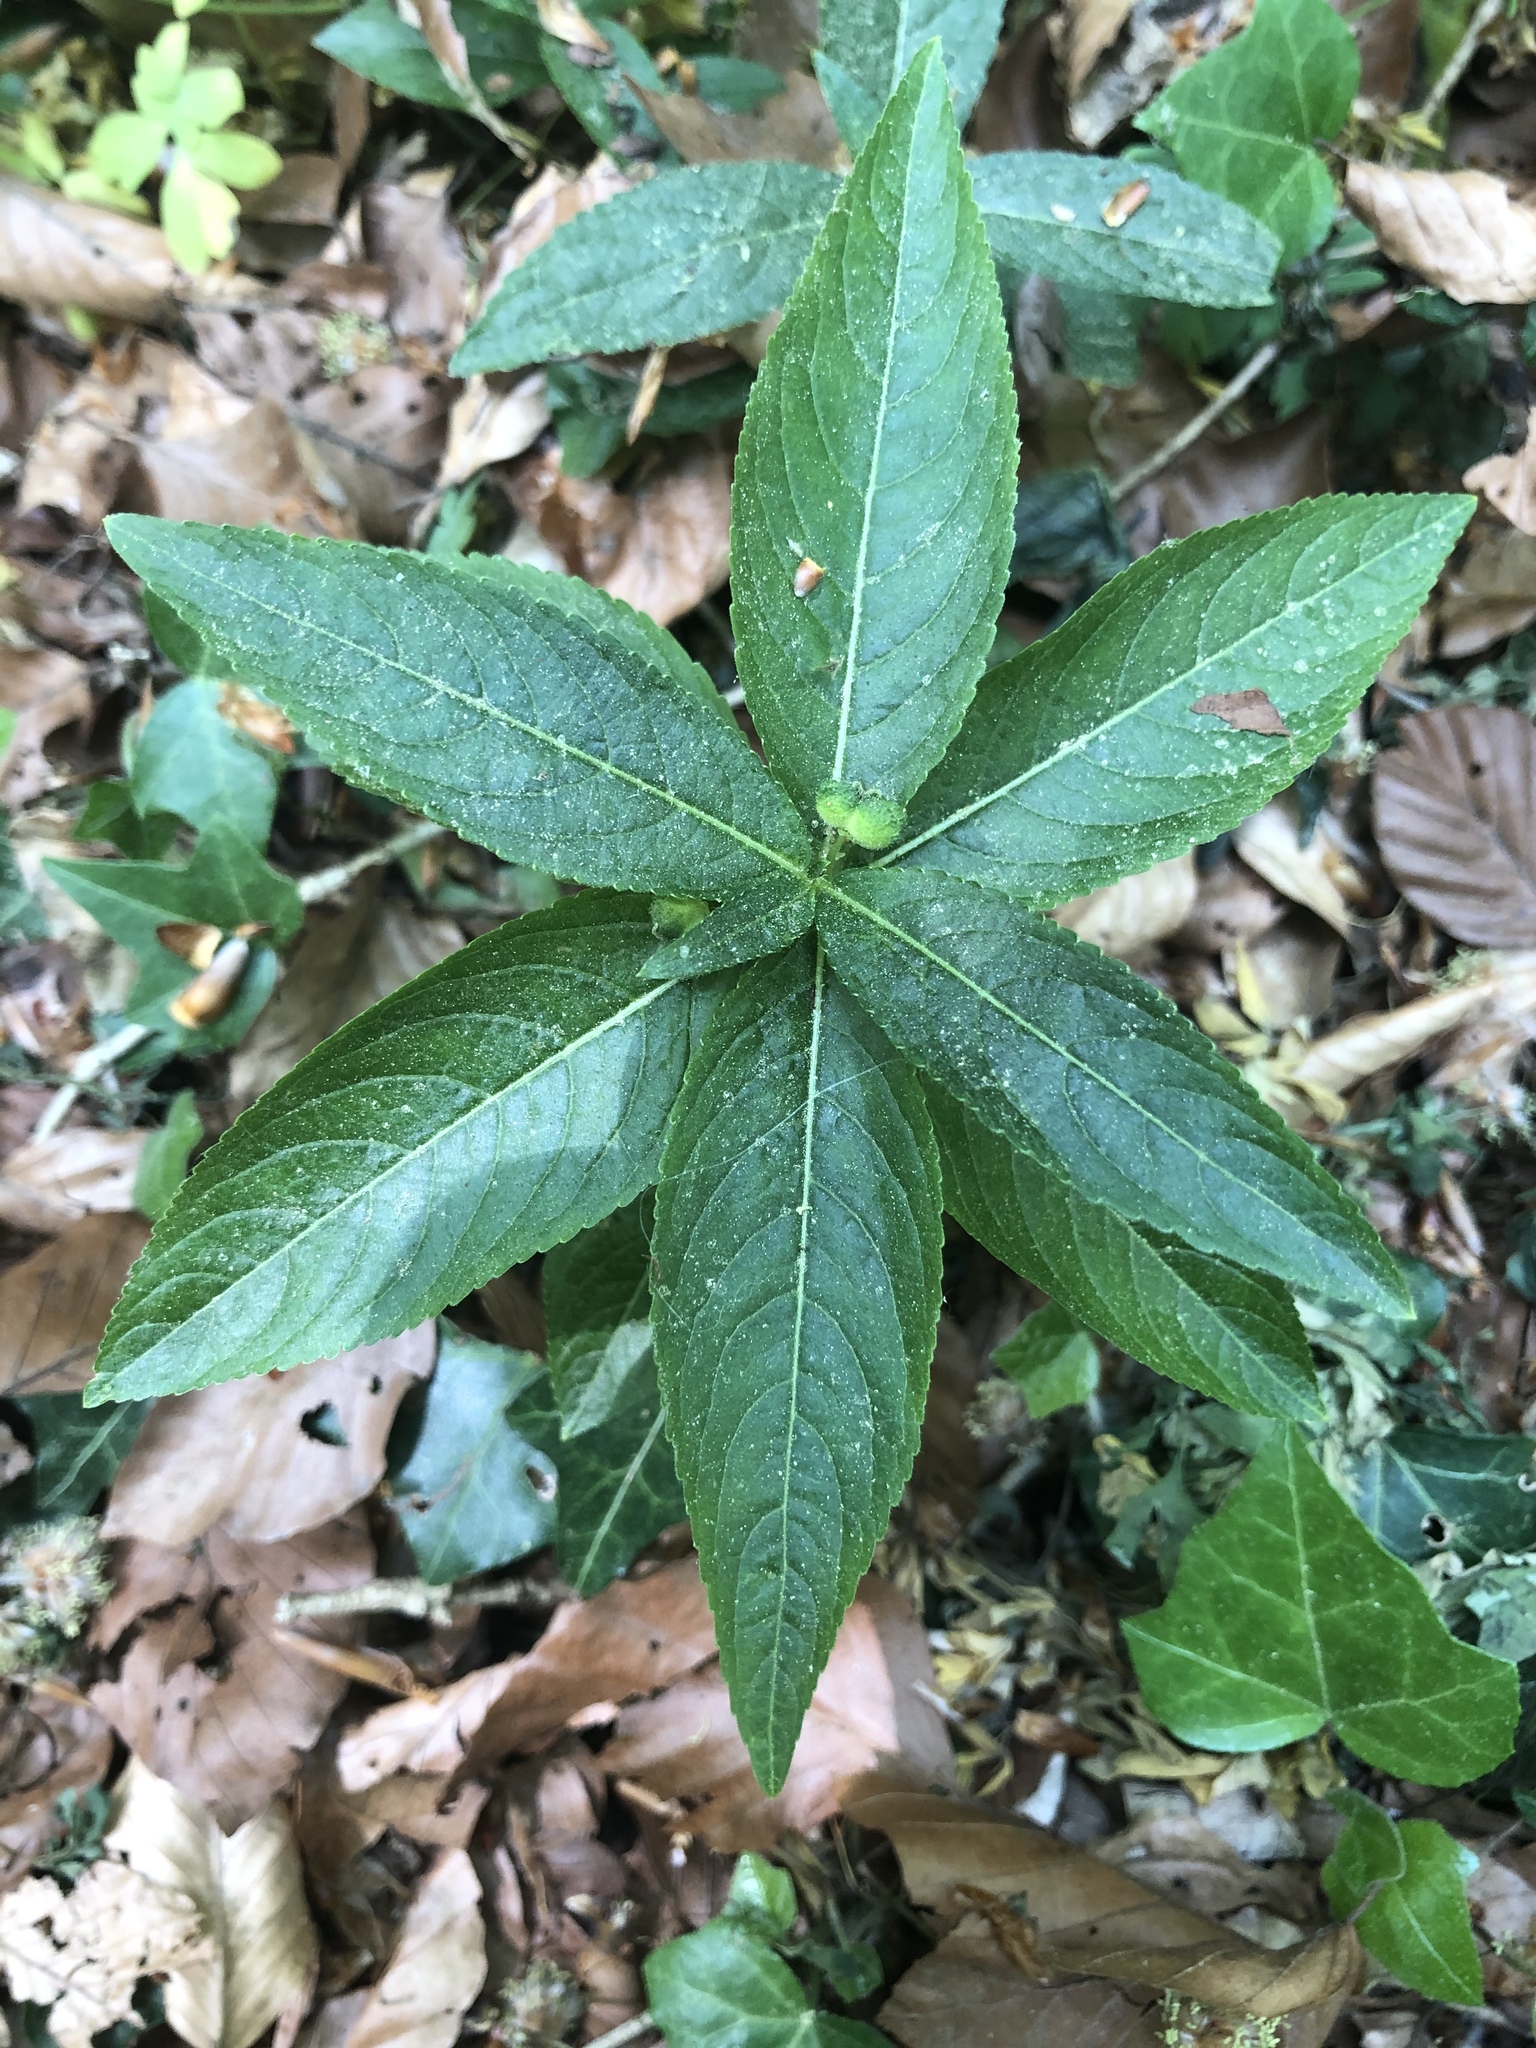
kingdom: Plantae
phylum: Tracheophyta
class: Magnoliopsida
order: Malpighiales
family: Euphorbiaceae
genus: Mercurialis
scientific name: Mercurialis perennis
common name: Dog mercury
